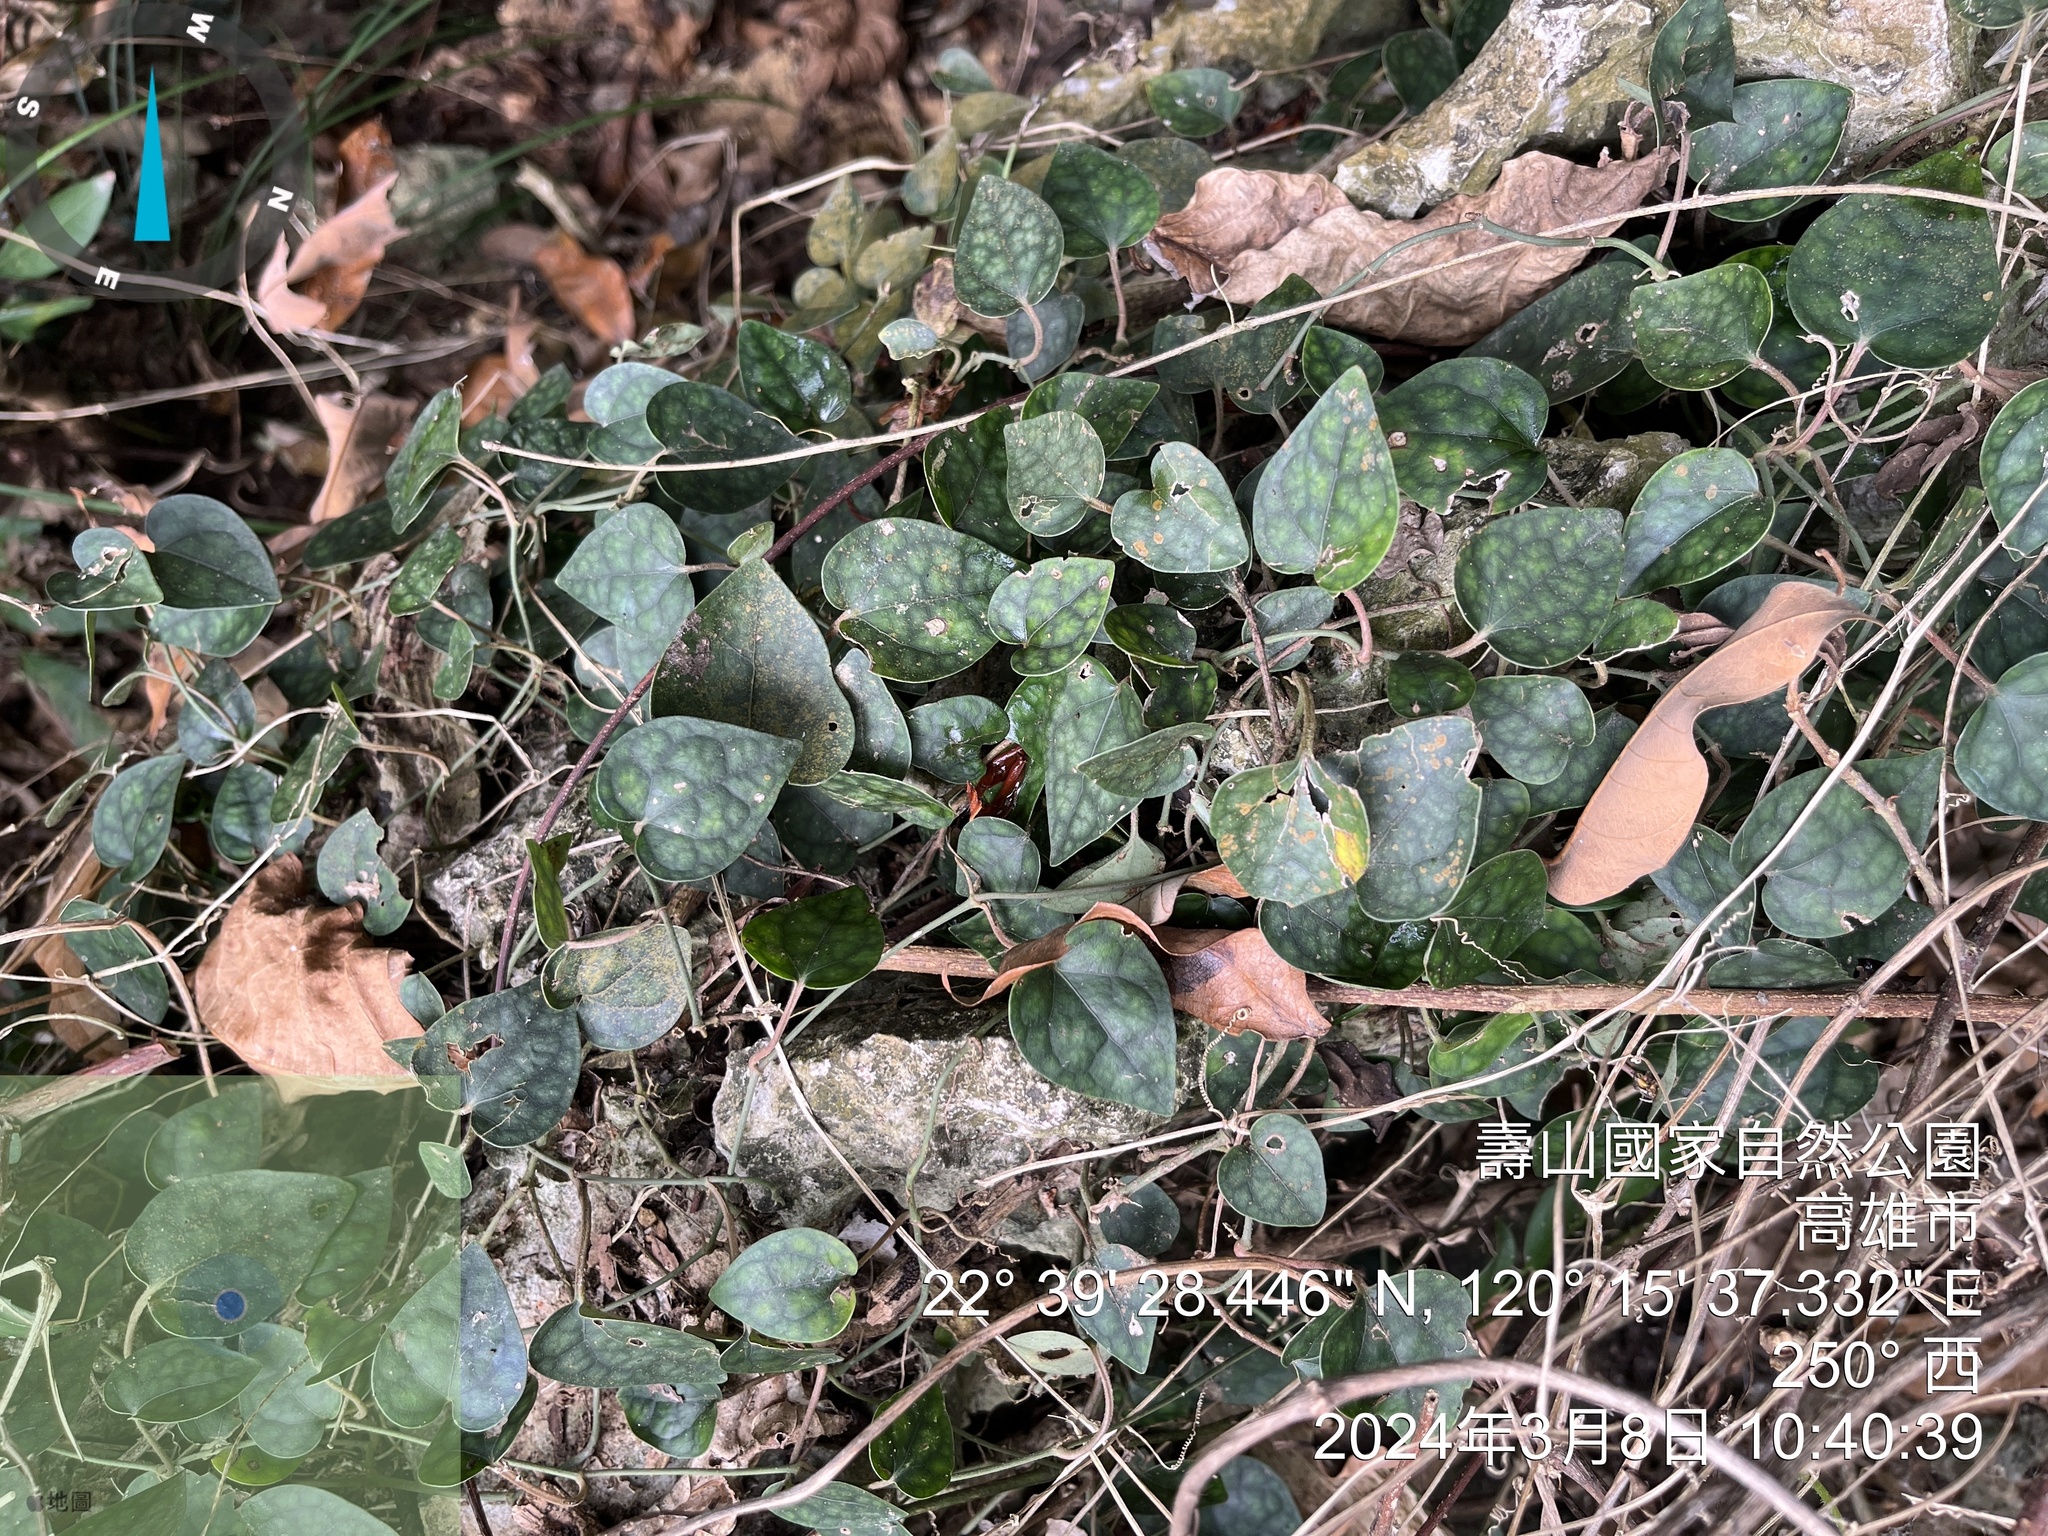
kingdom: Plantae
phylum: Tracheophyta
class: Magnoliopsida
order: Piperales
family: Piperaceae
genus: Piper
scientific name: Piper kadsura
